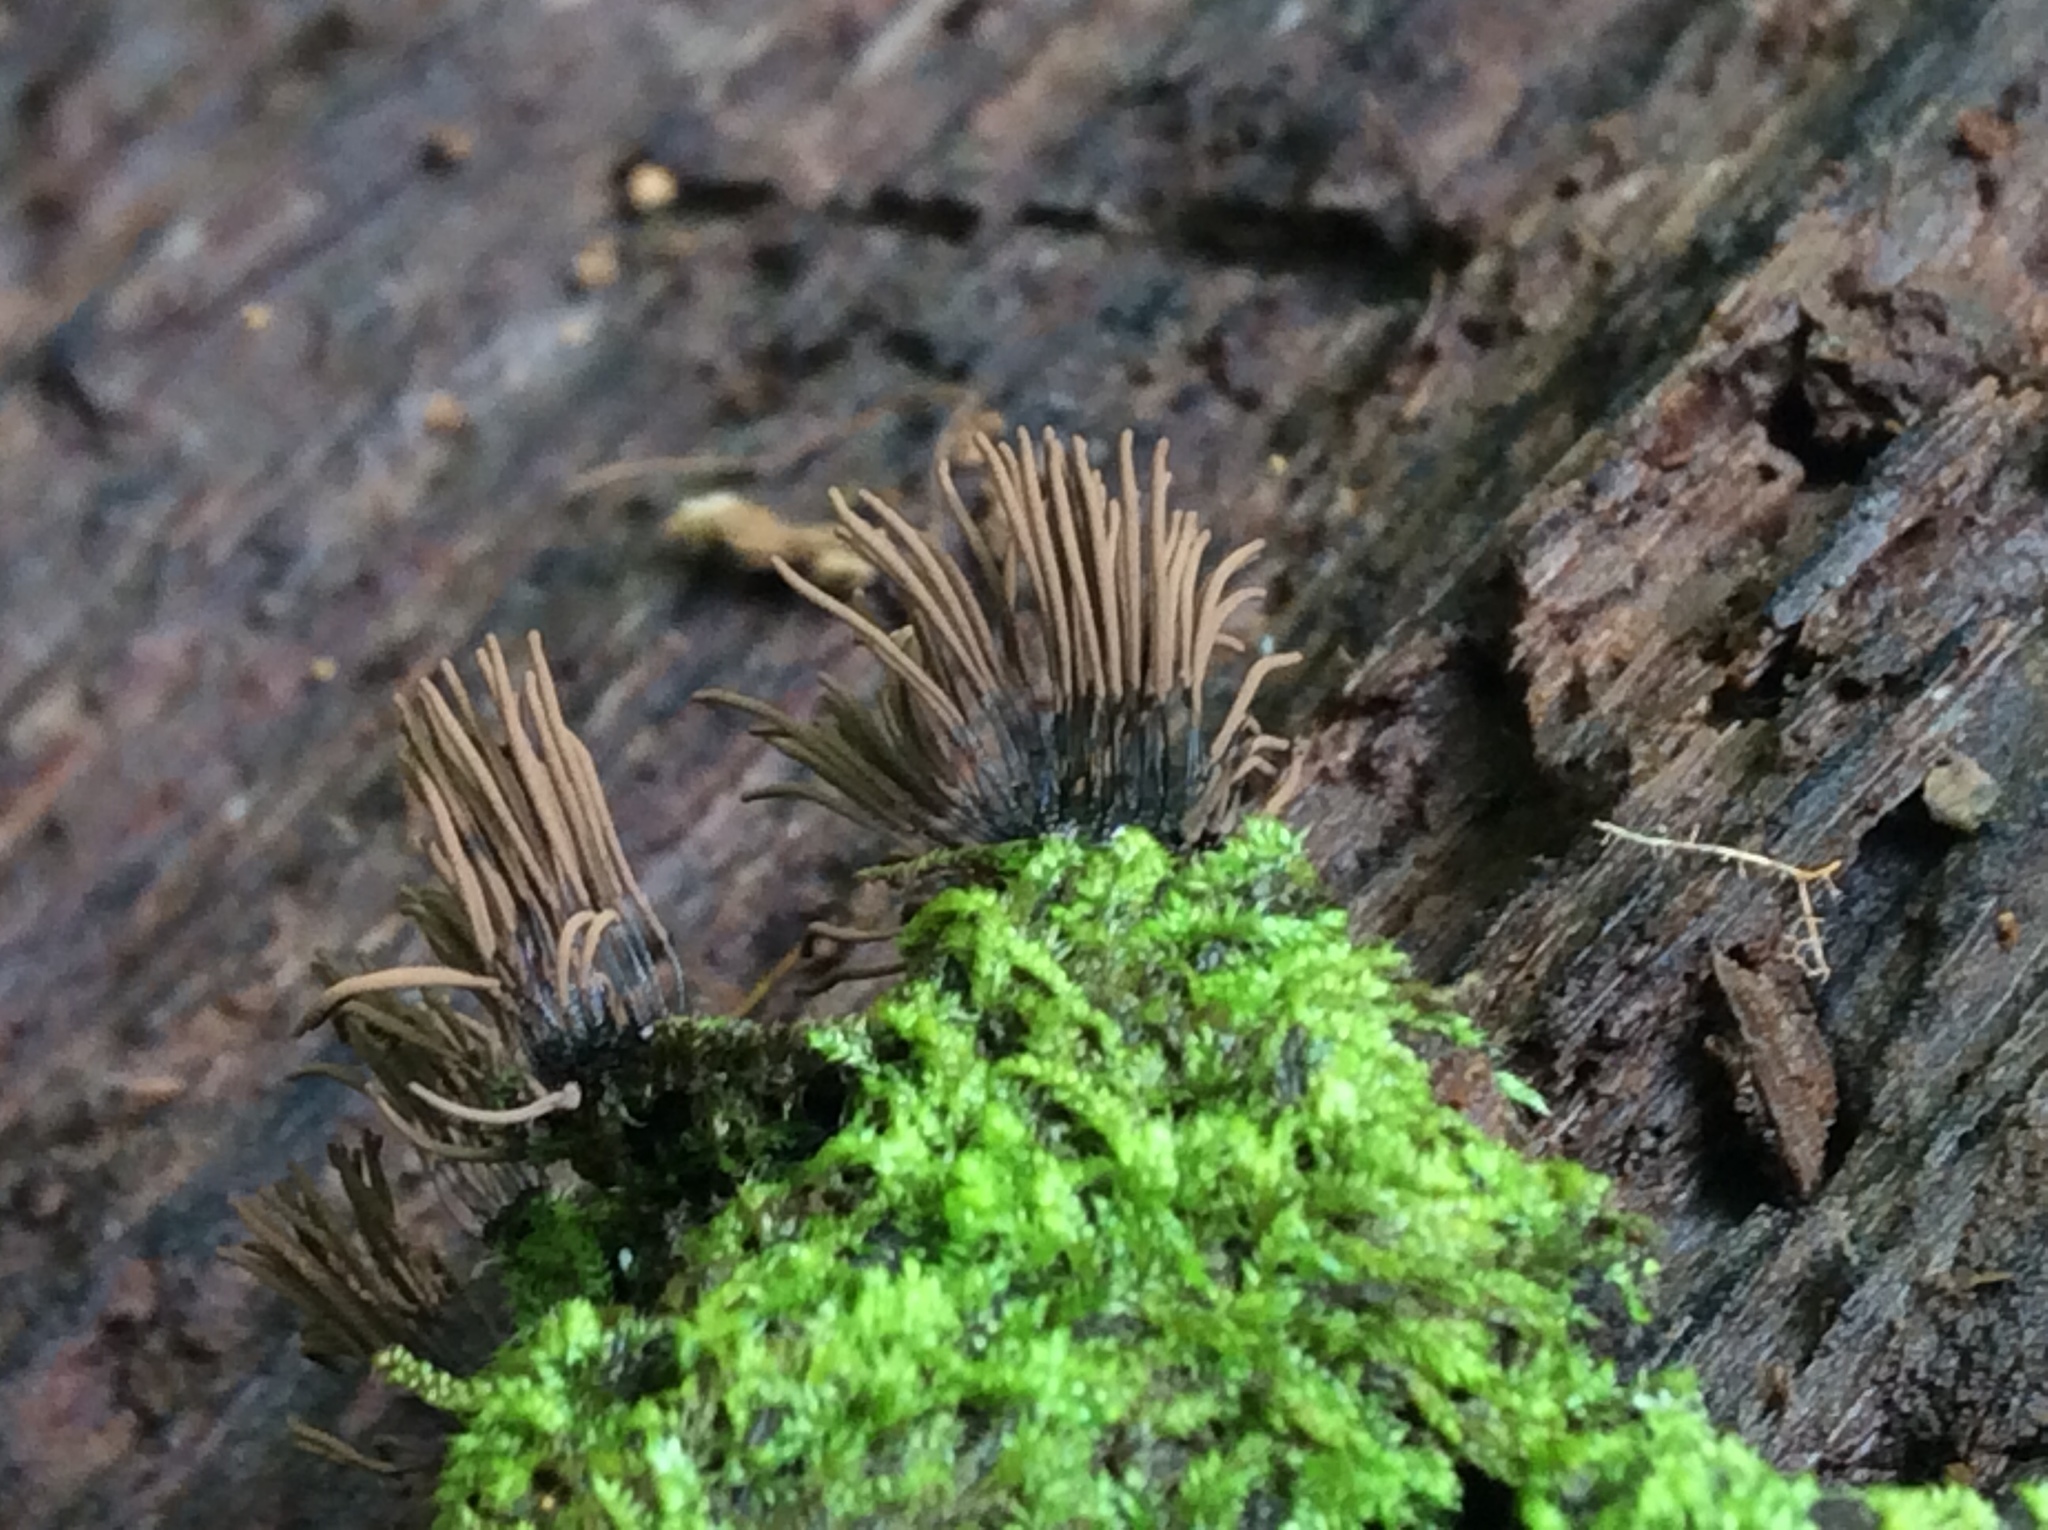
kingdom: Protozoa
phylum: Mycetozoa
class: Myxomycetes
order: Stemonitidales
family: Stemonitidaceae
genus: Stemonitis
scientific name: Stemonitis splendens
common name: Chocolate tube slime
